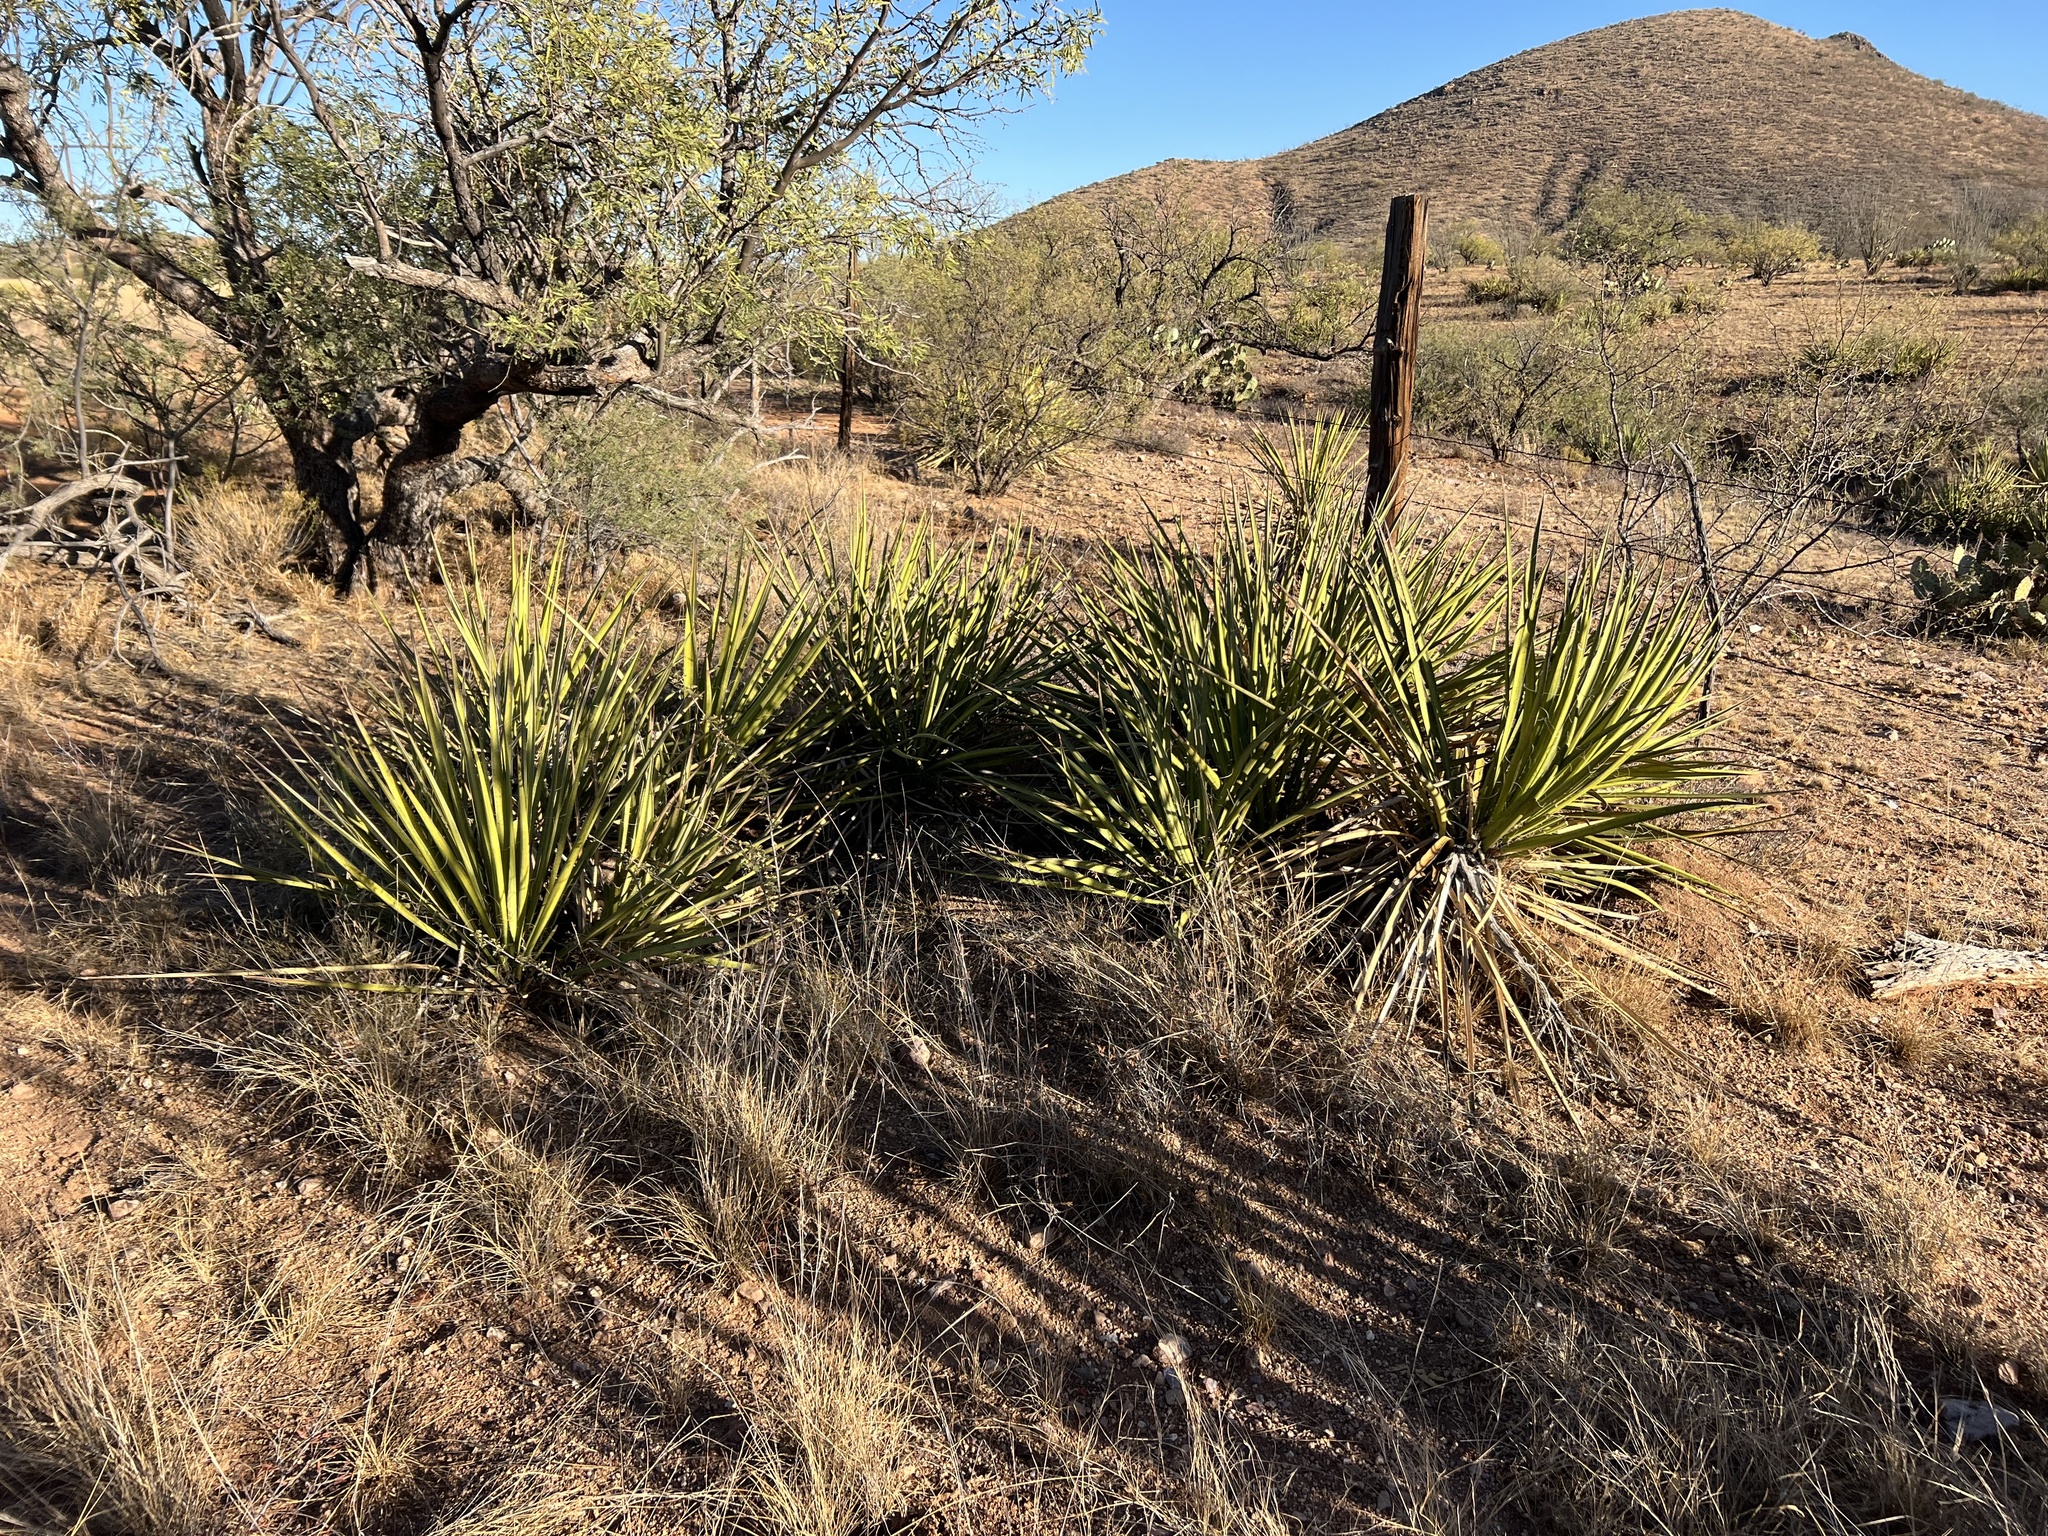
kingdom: Plantae
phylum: Tracheophyta
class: Liliopsida
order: Asparagales
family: Asparagaceae
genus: Yucca
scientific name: Yucca baccata
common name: Banana yucca
